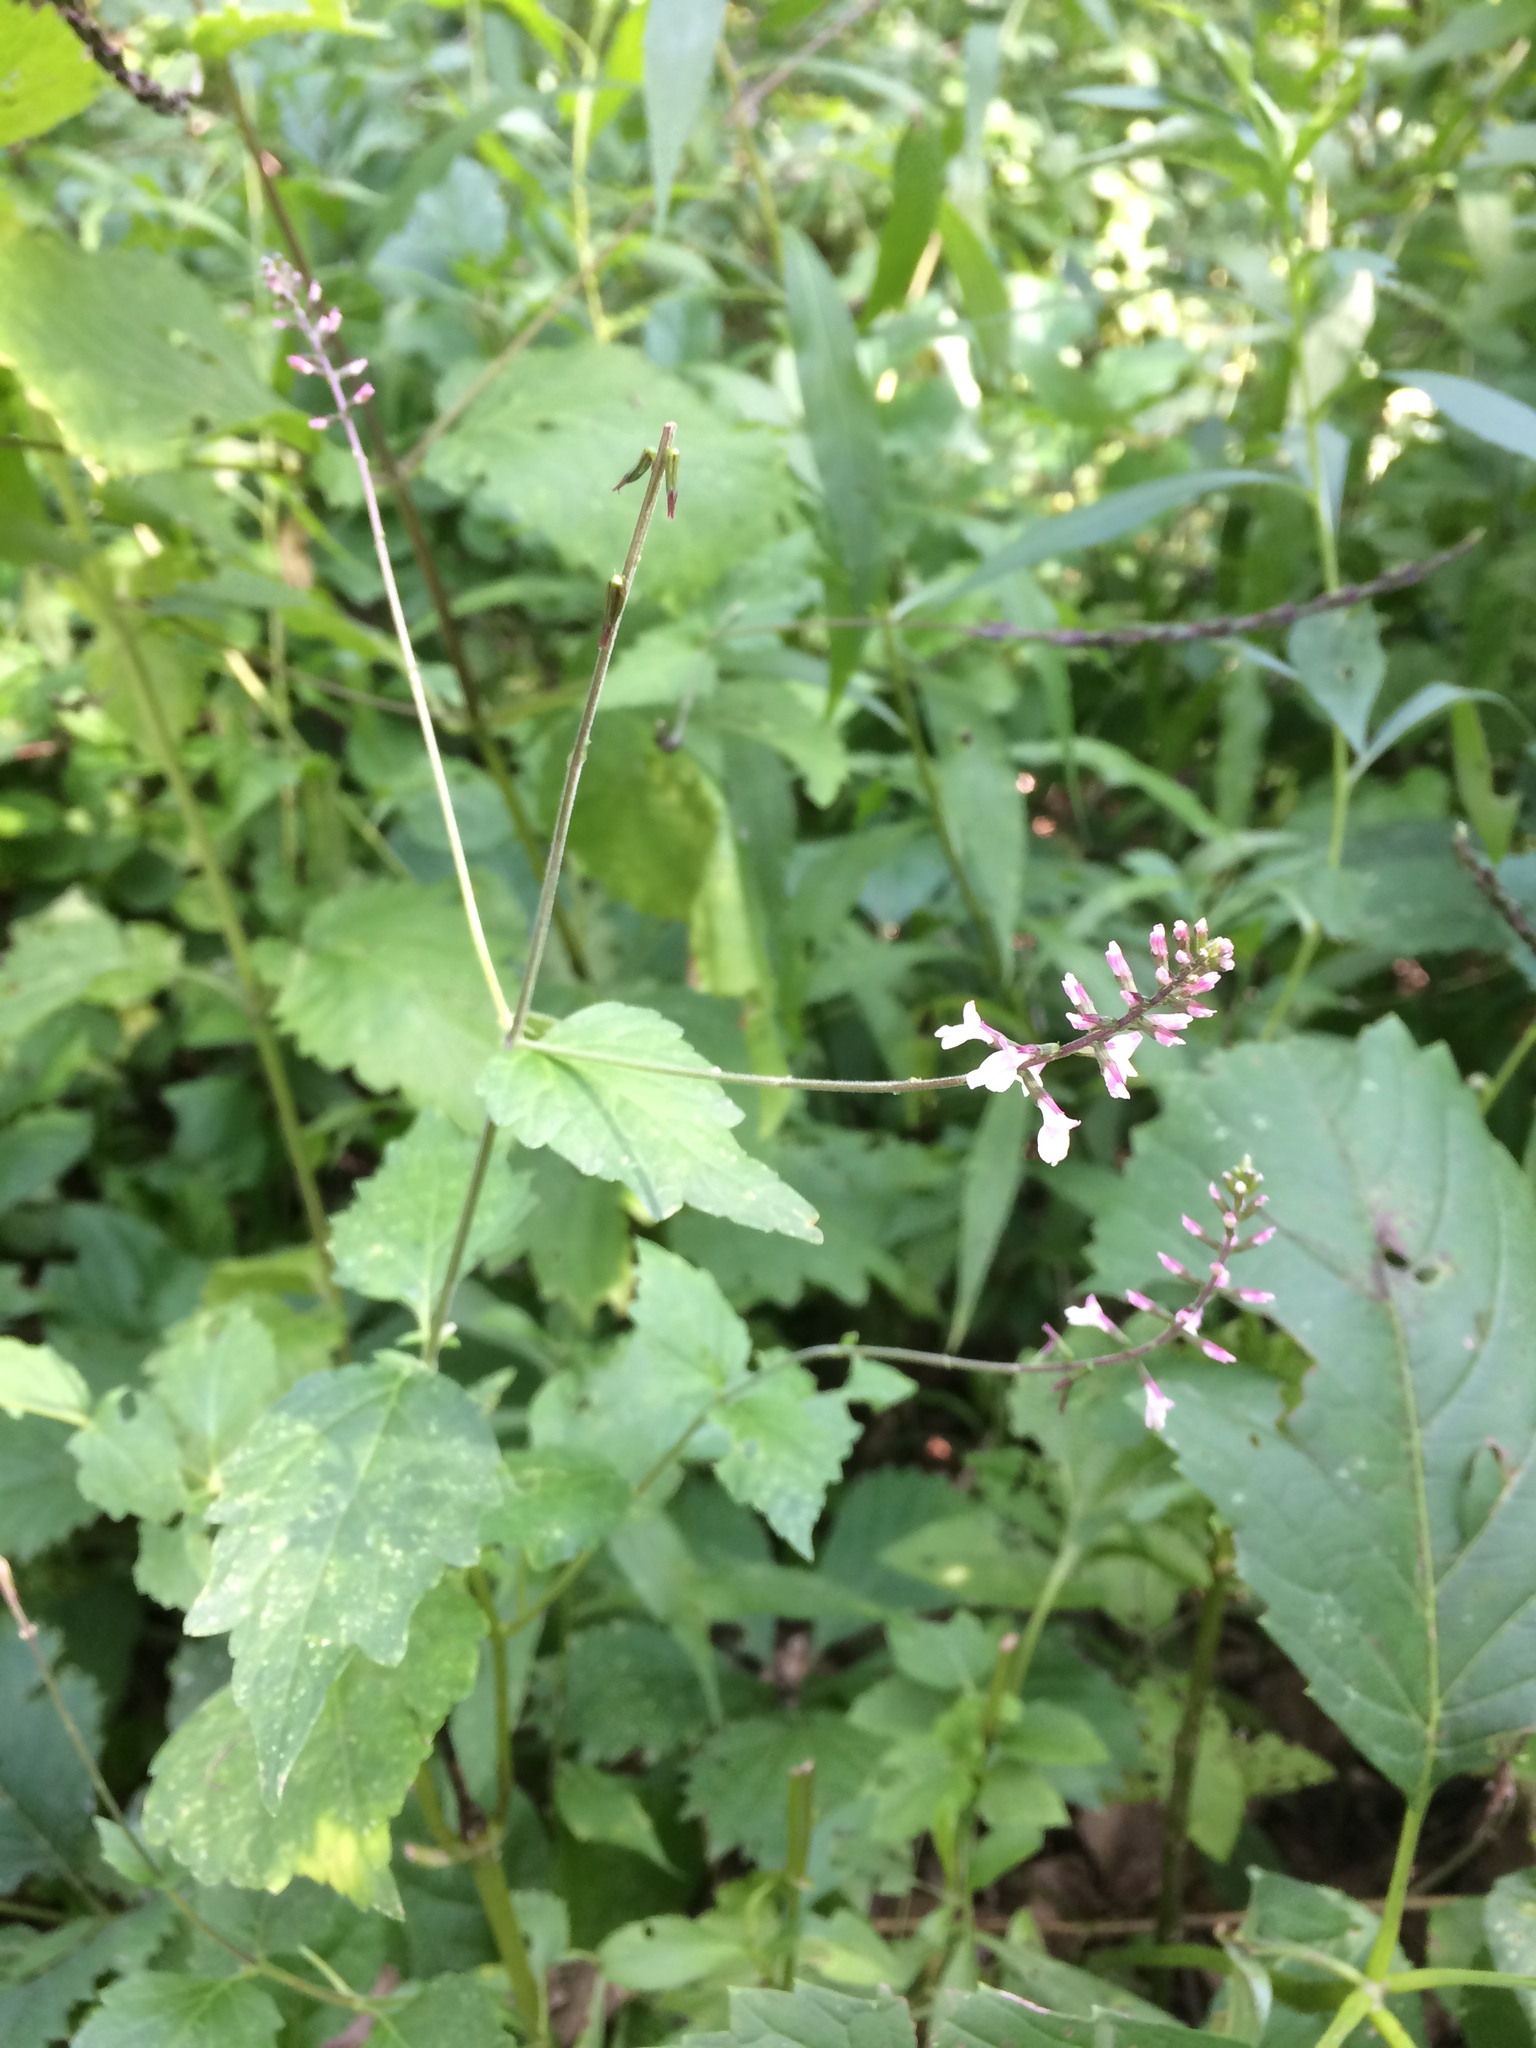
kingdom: Plantae
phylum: Tracheophyta
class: Magnoliopsida
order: Lamiales
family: Phrymaceae
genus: Phryma
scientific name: Phryma leptostachya
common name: American lopseed
